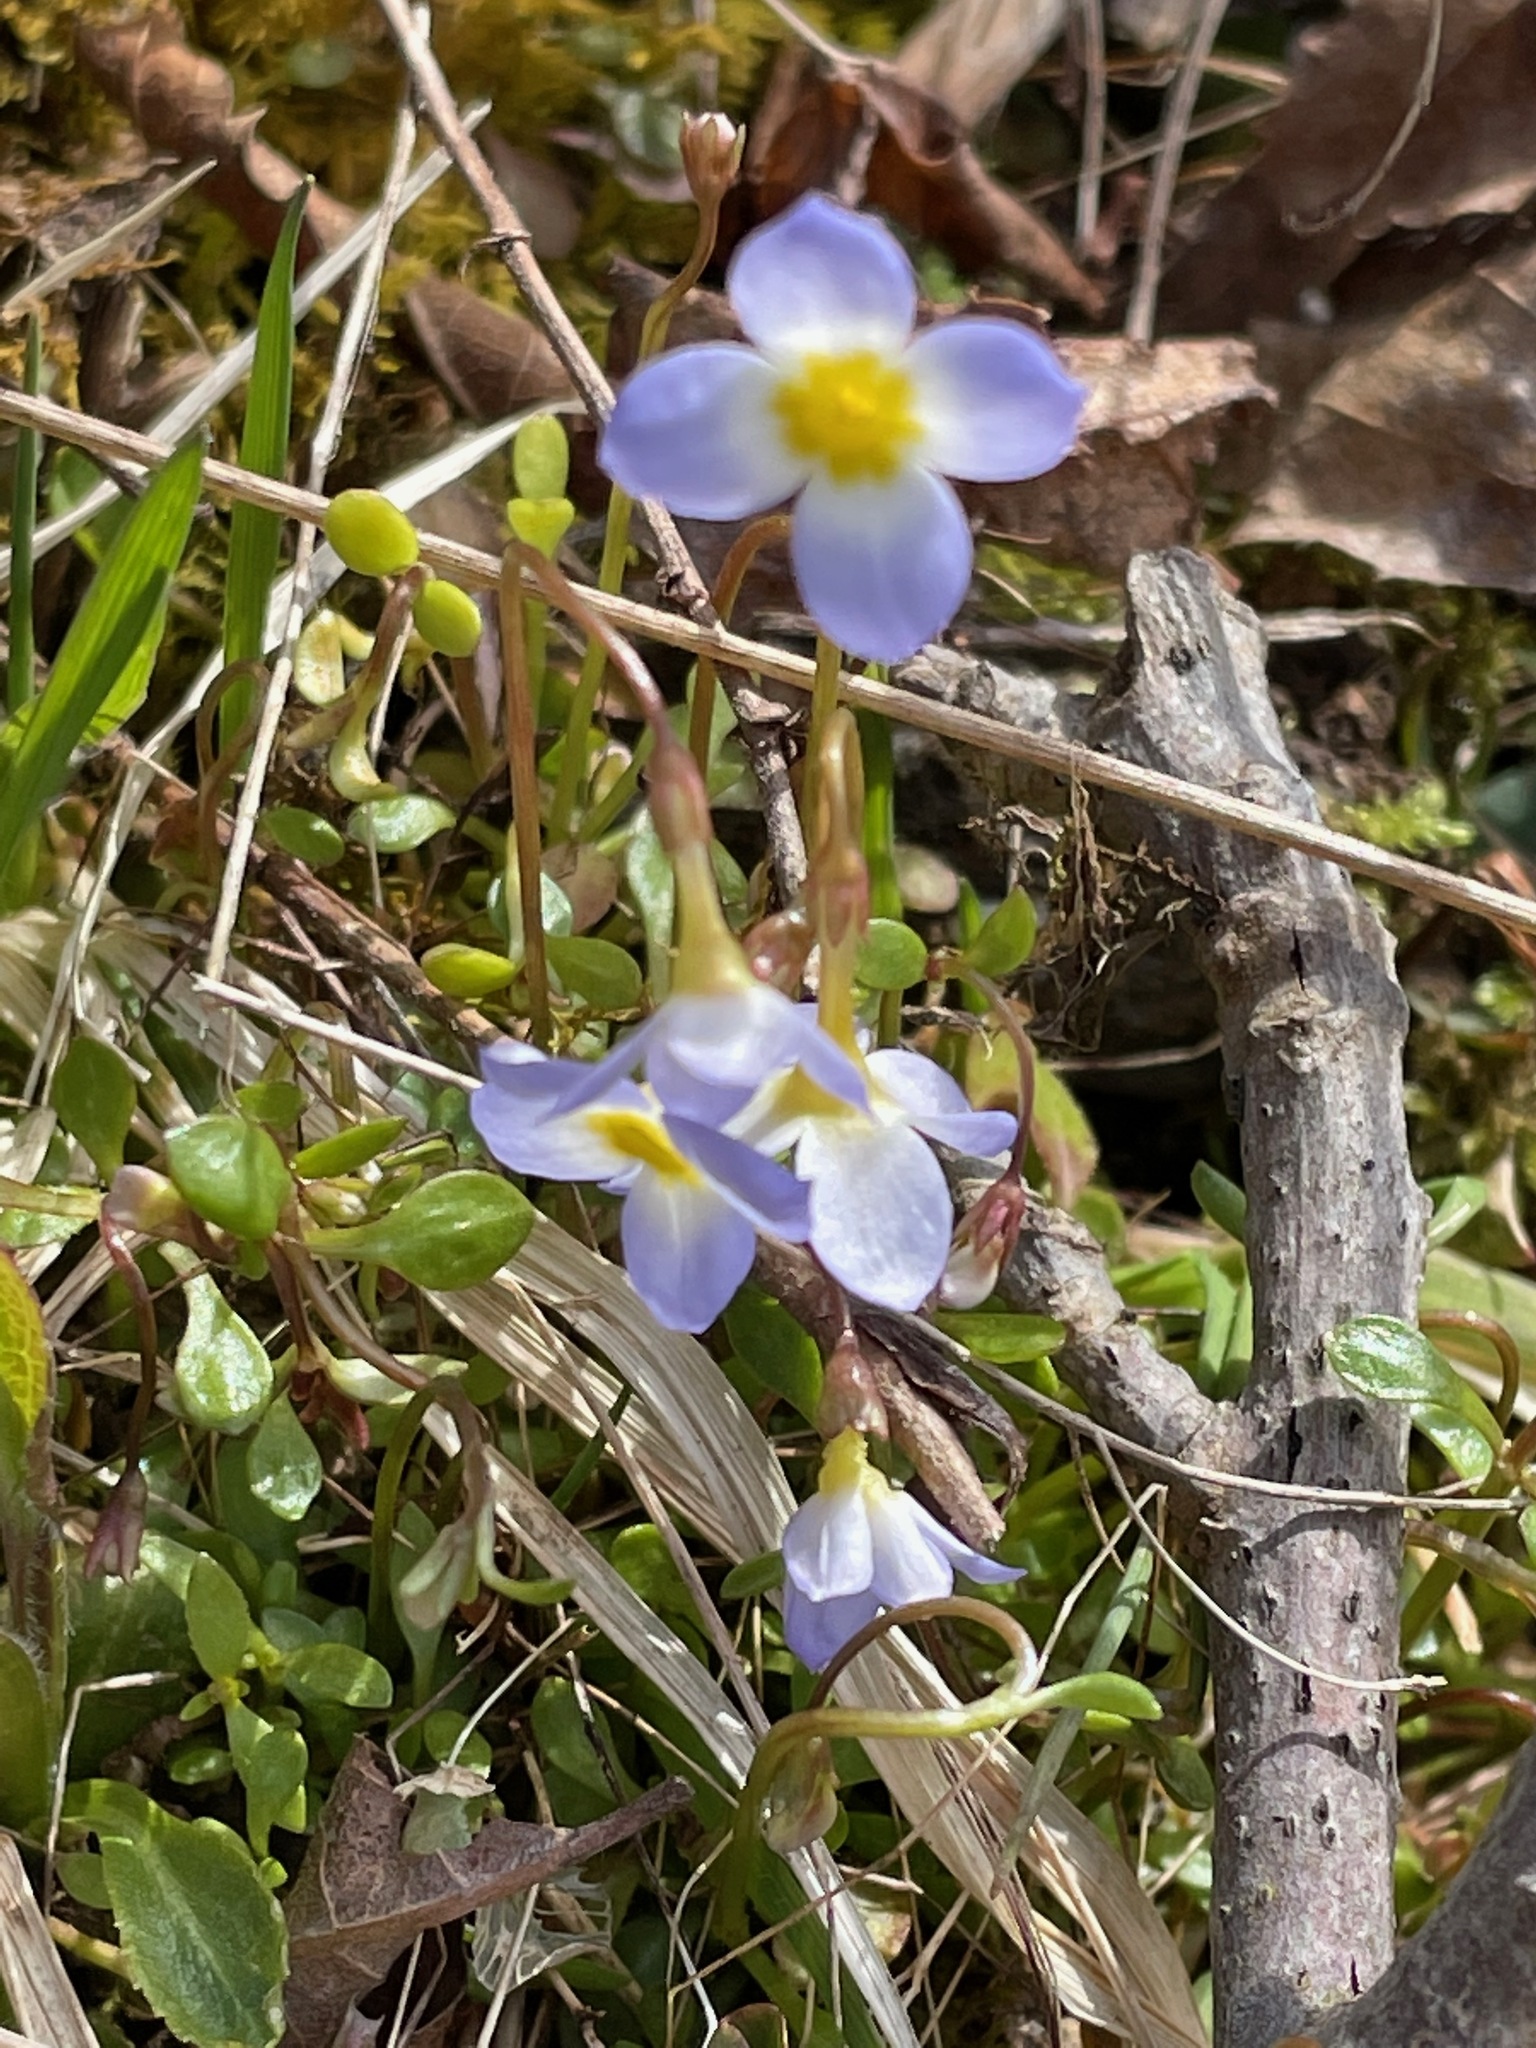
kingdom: Plantae
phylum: Tracheophyta
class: Magnoliopsida
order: Gentianales
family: Rubiaceae
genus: Houstonia
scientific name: Houstonia caerulea
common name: Bluets
